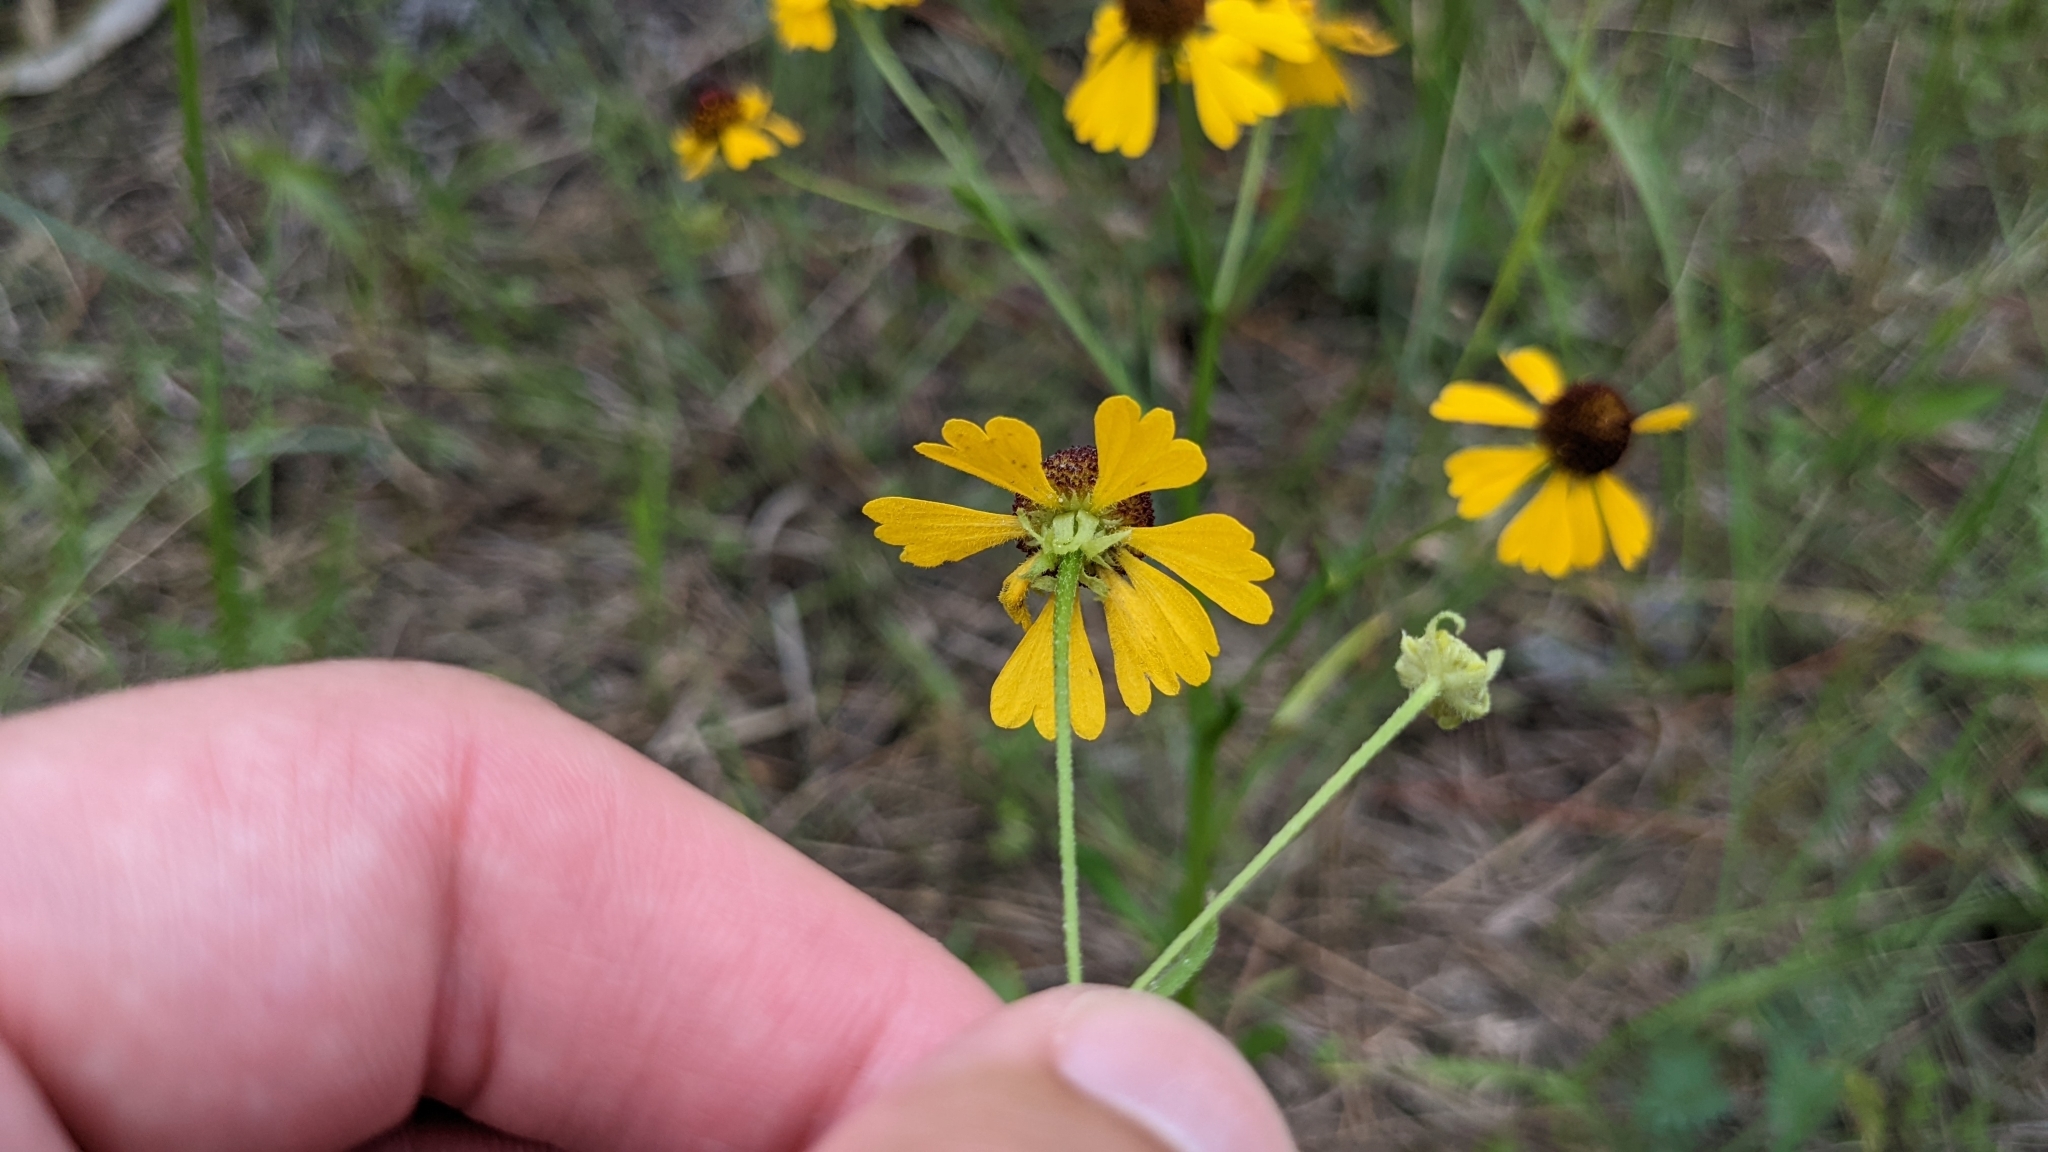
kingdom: Plantae
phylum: Tracheophyta
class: Magnoliopsida
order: Asterales
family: Asteraceae
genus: Helenium
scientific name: Helenium flexuosum
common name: Naked-flowered sneezeweed
